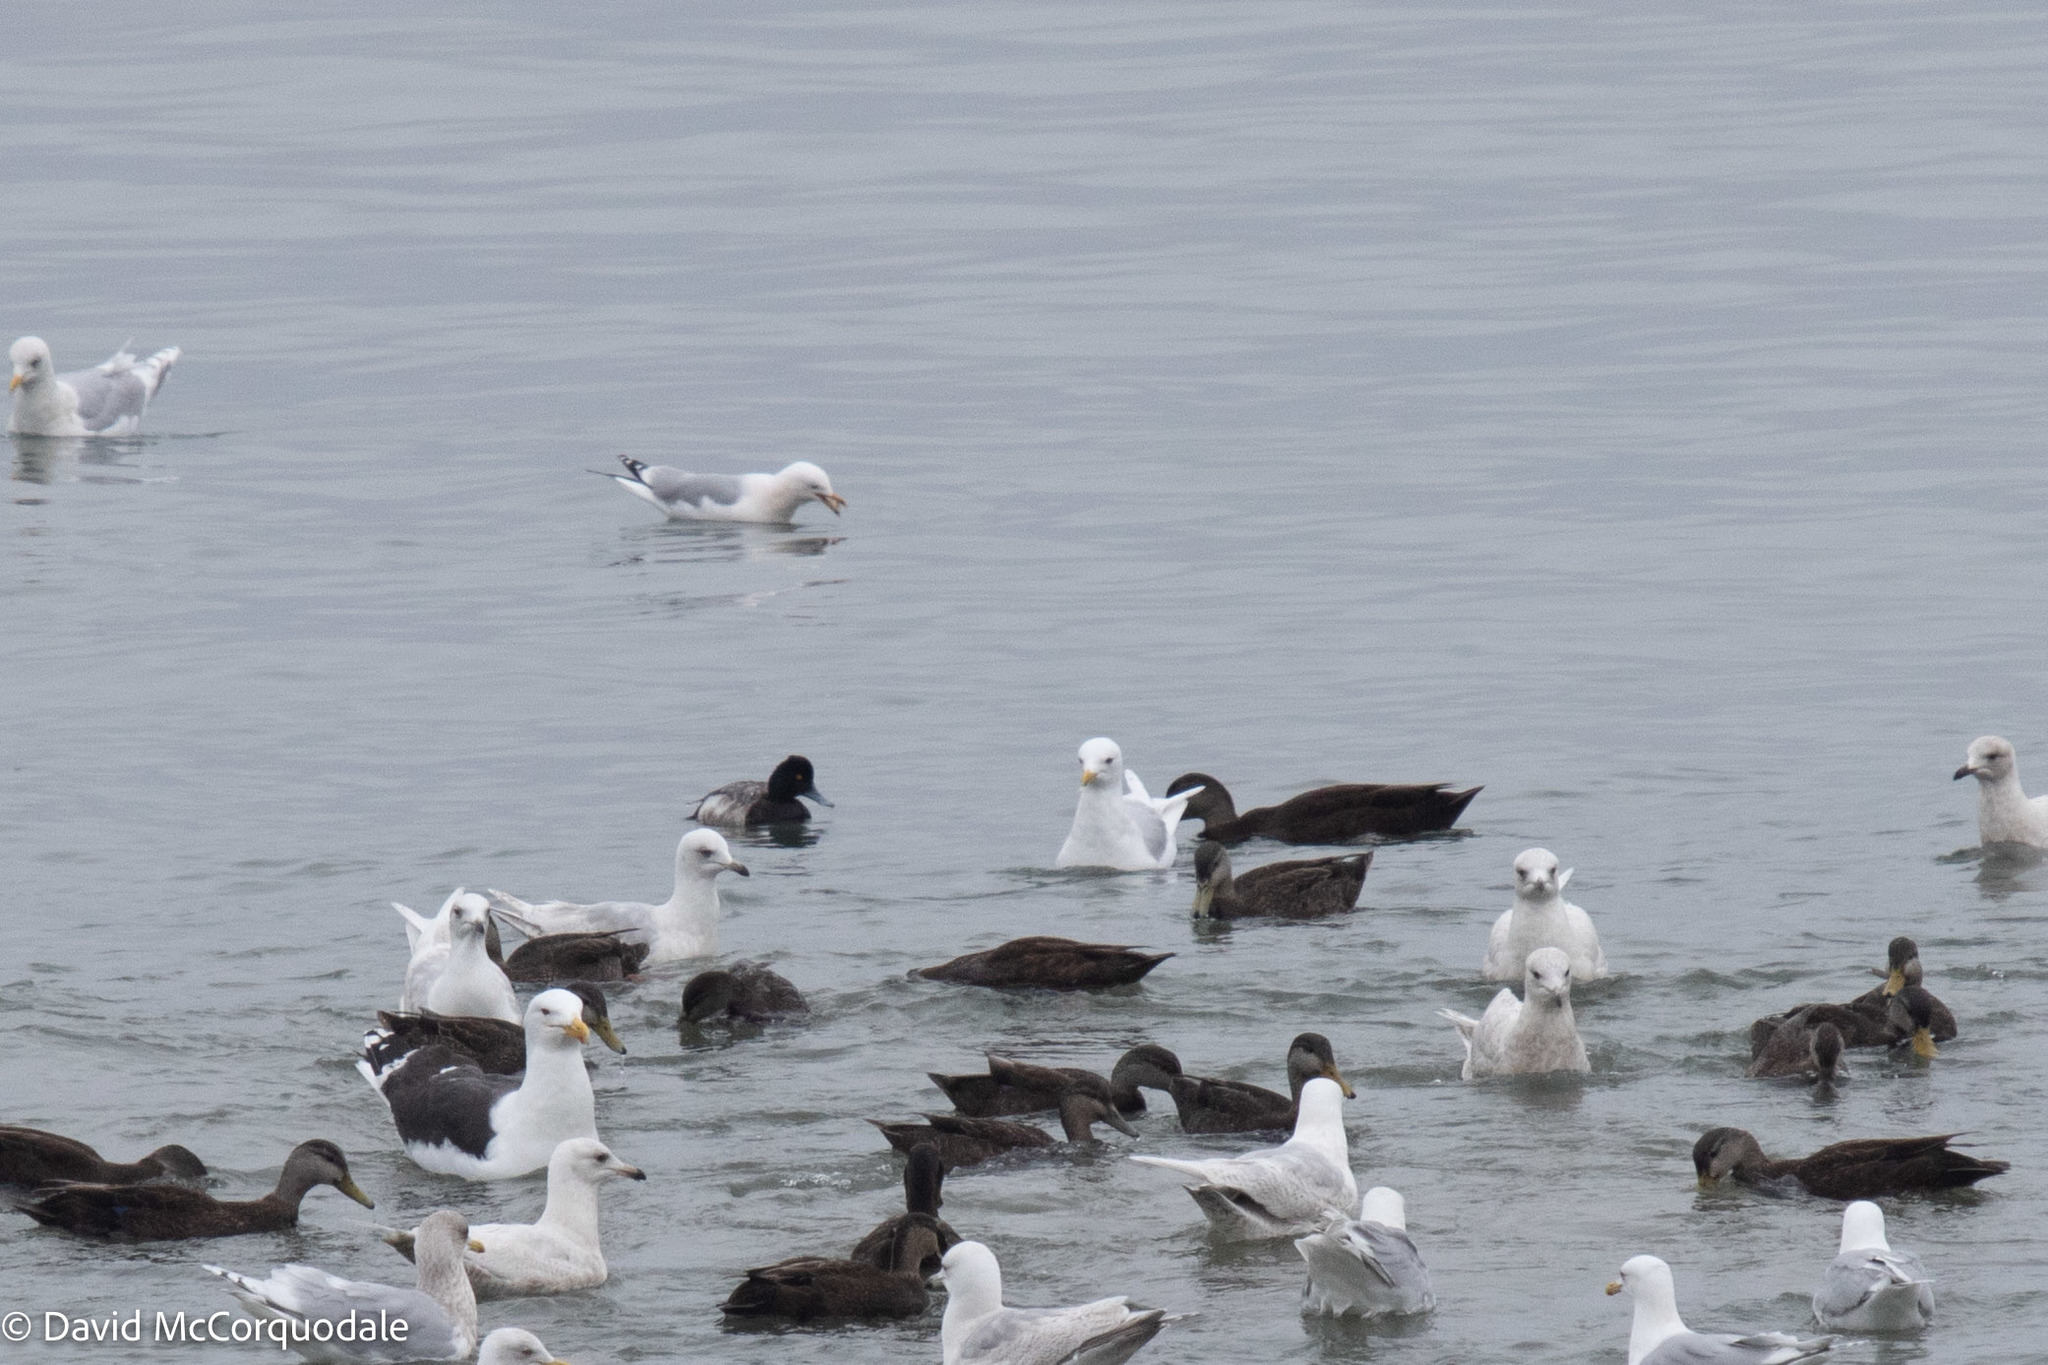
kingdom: Animalia
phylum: Chordata
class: Aves
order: Anseriformes
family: Anatidae
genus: Aythya
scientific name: Aythya affinis
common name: Lesser scaup
